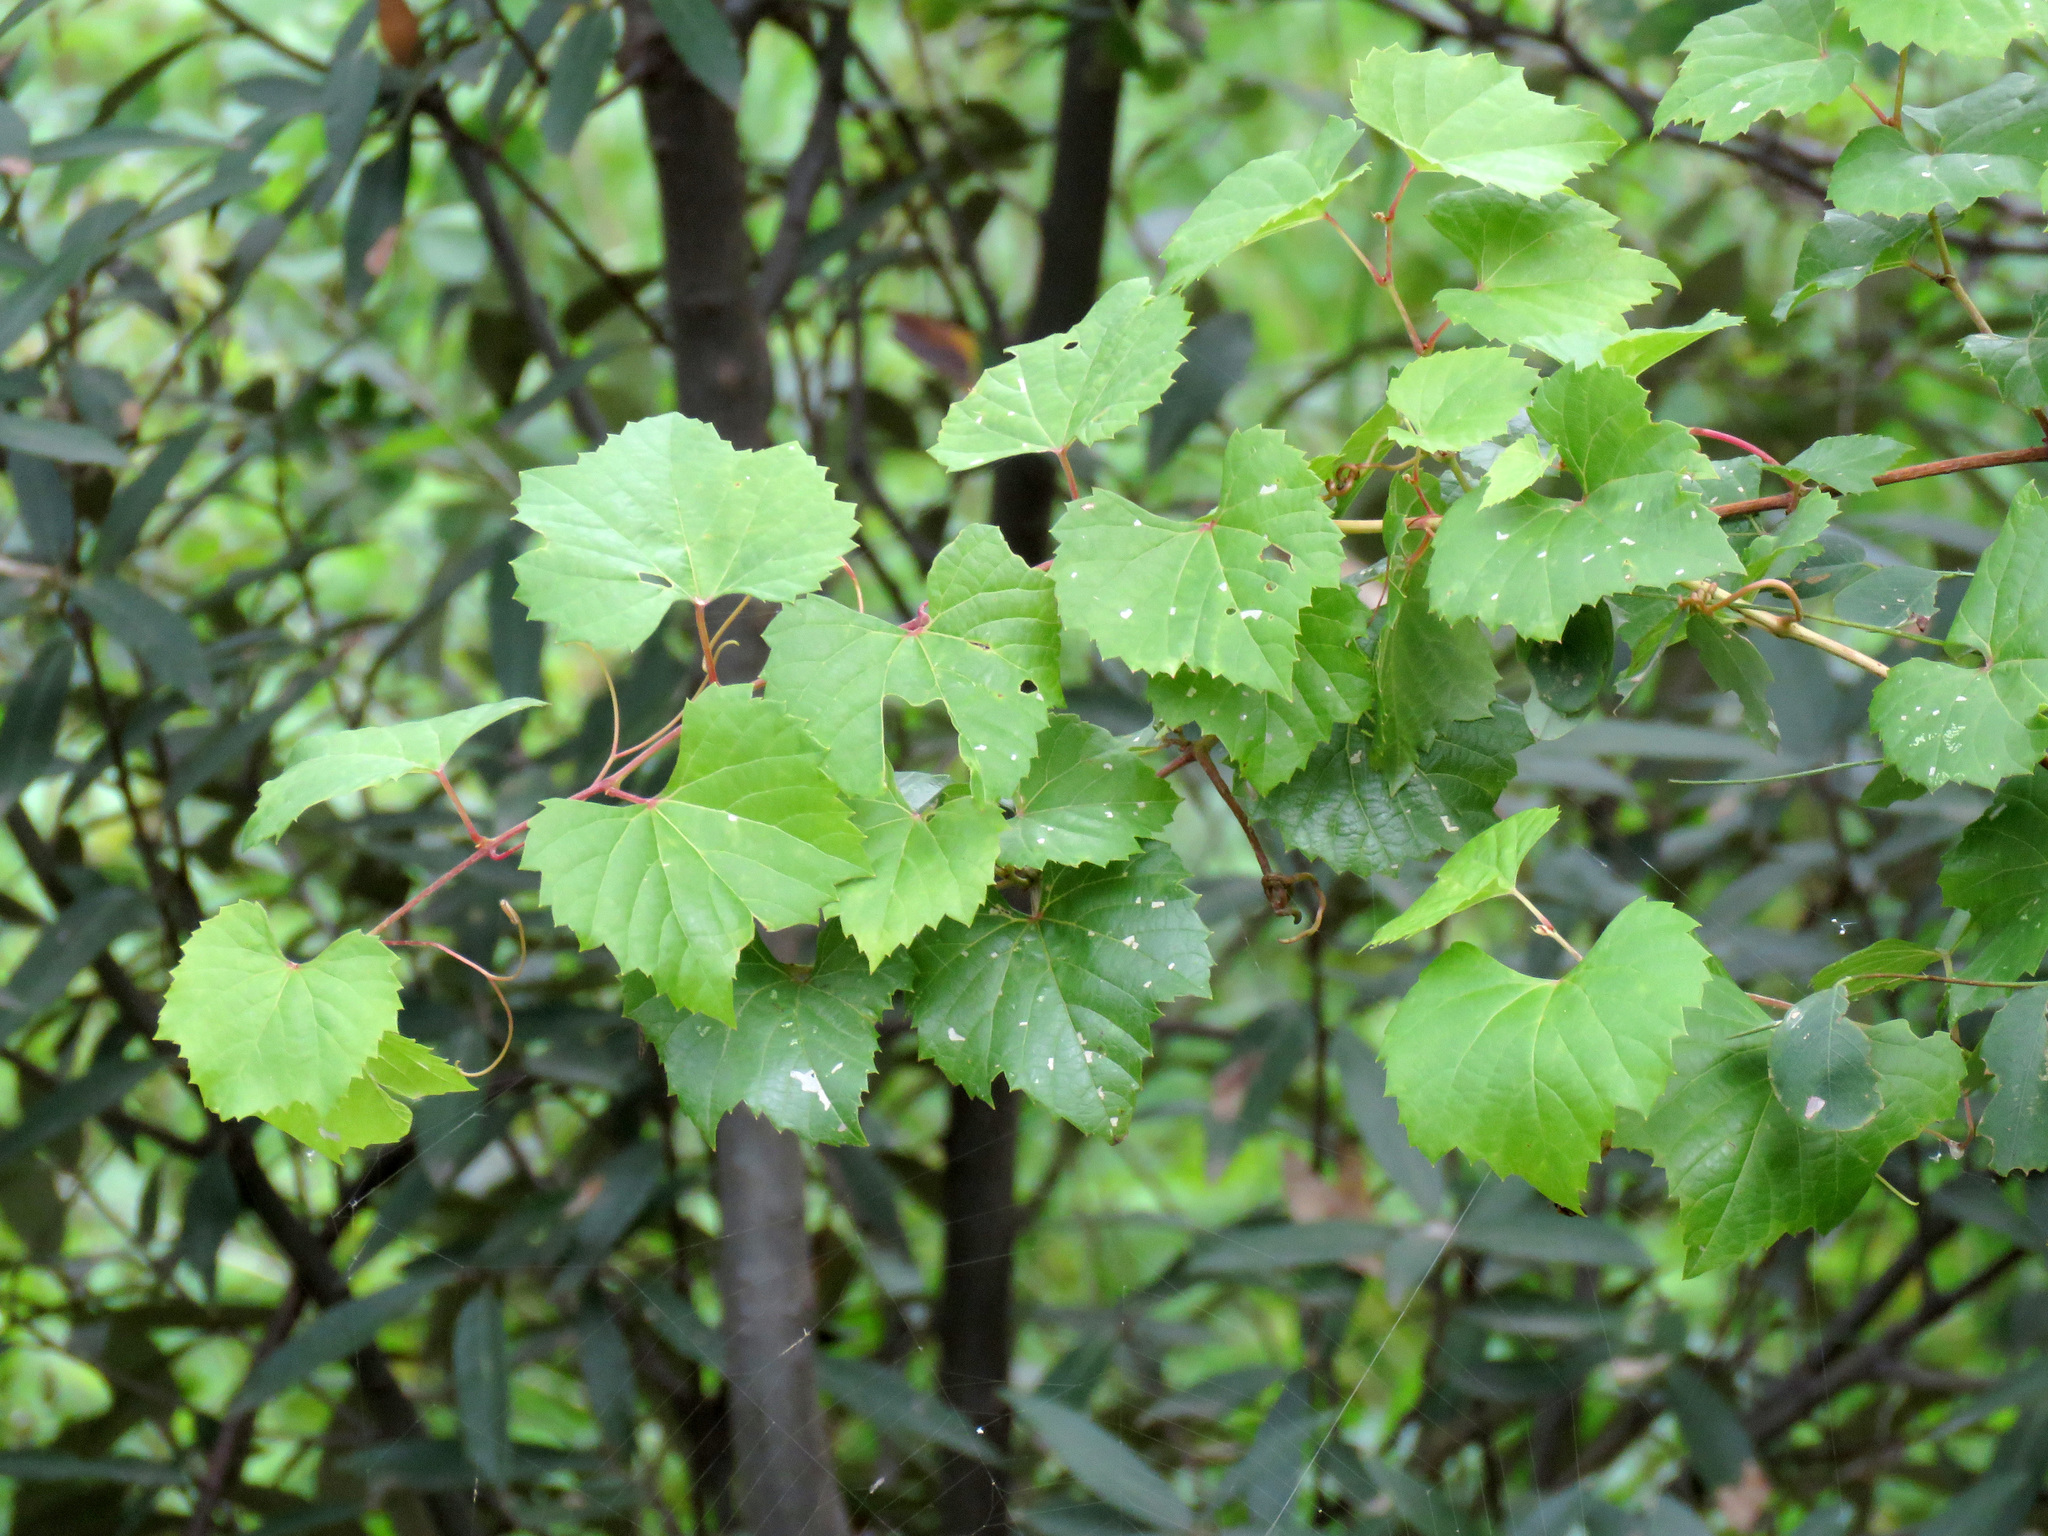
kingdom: Plantae
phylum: Tracheophyta
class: Magnoliopsida
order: Vitales
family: Vitaceae
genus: Vitis
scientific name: Vitis arizonica
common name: Canyon grape
